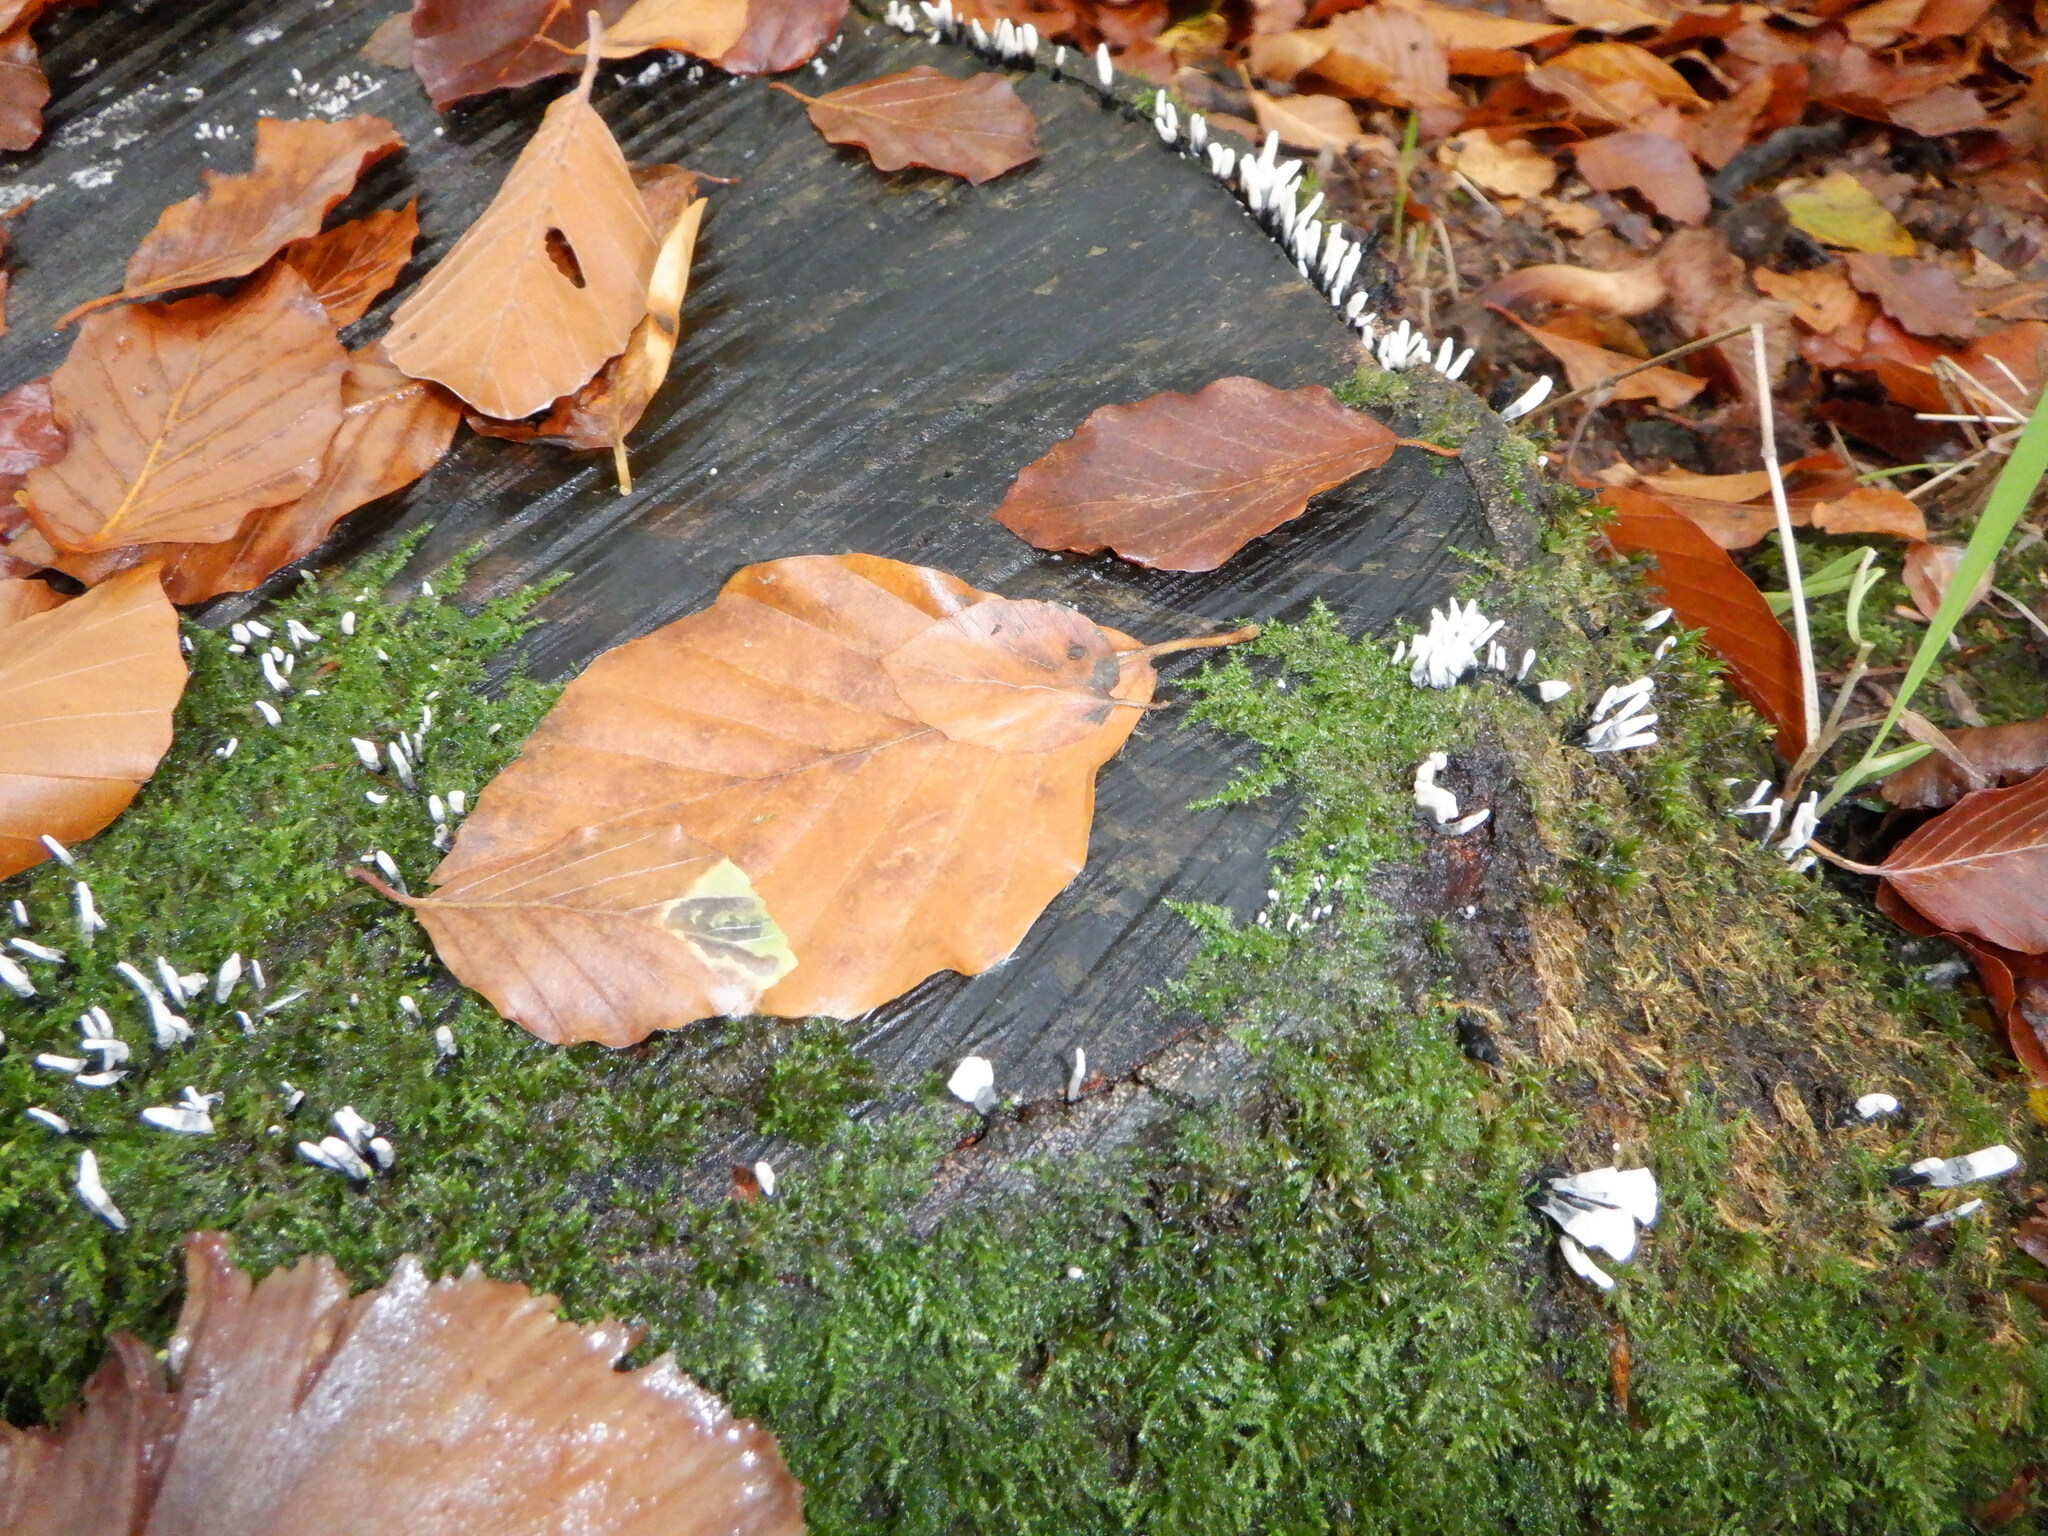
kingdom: Fungi
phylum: Ascomycota
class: Sordariomycetes
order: Xylariales
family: Xylariaceae
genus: Xylaria
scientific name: Xylaria hypoxylon
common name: Candle-snuff fungus
